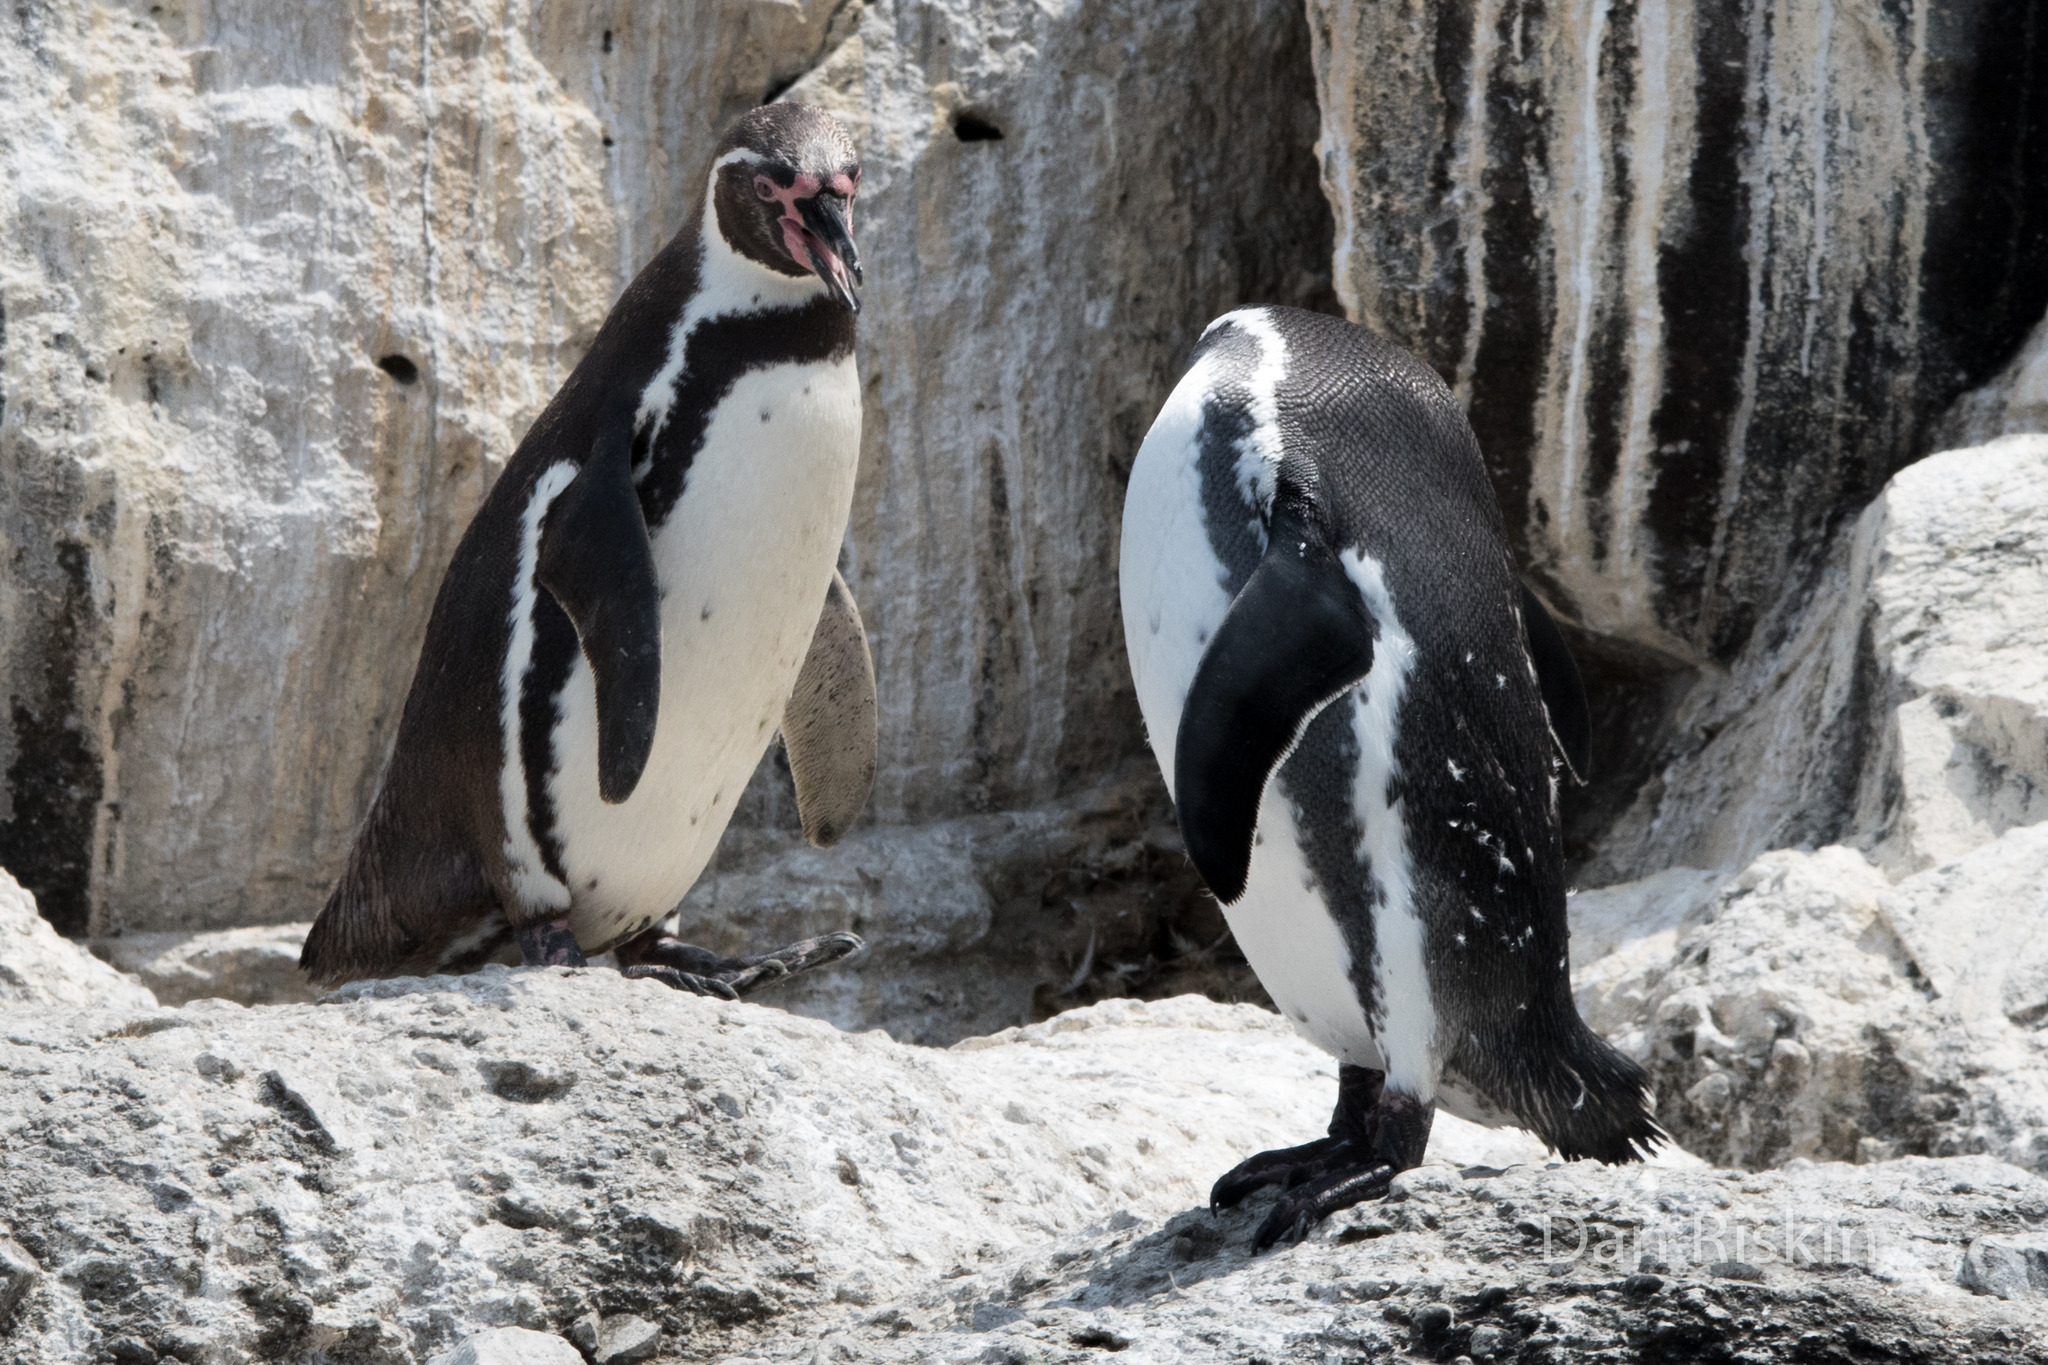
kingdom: Animalia
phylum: Chordata
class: Aves
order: Sphenisciformes
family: Spheniscidae
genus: Spheniscus
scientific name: Spheniscus humboldti
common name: Humboldt penguin
